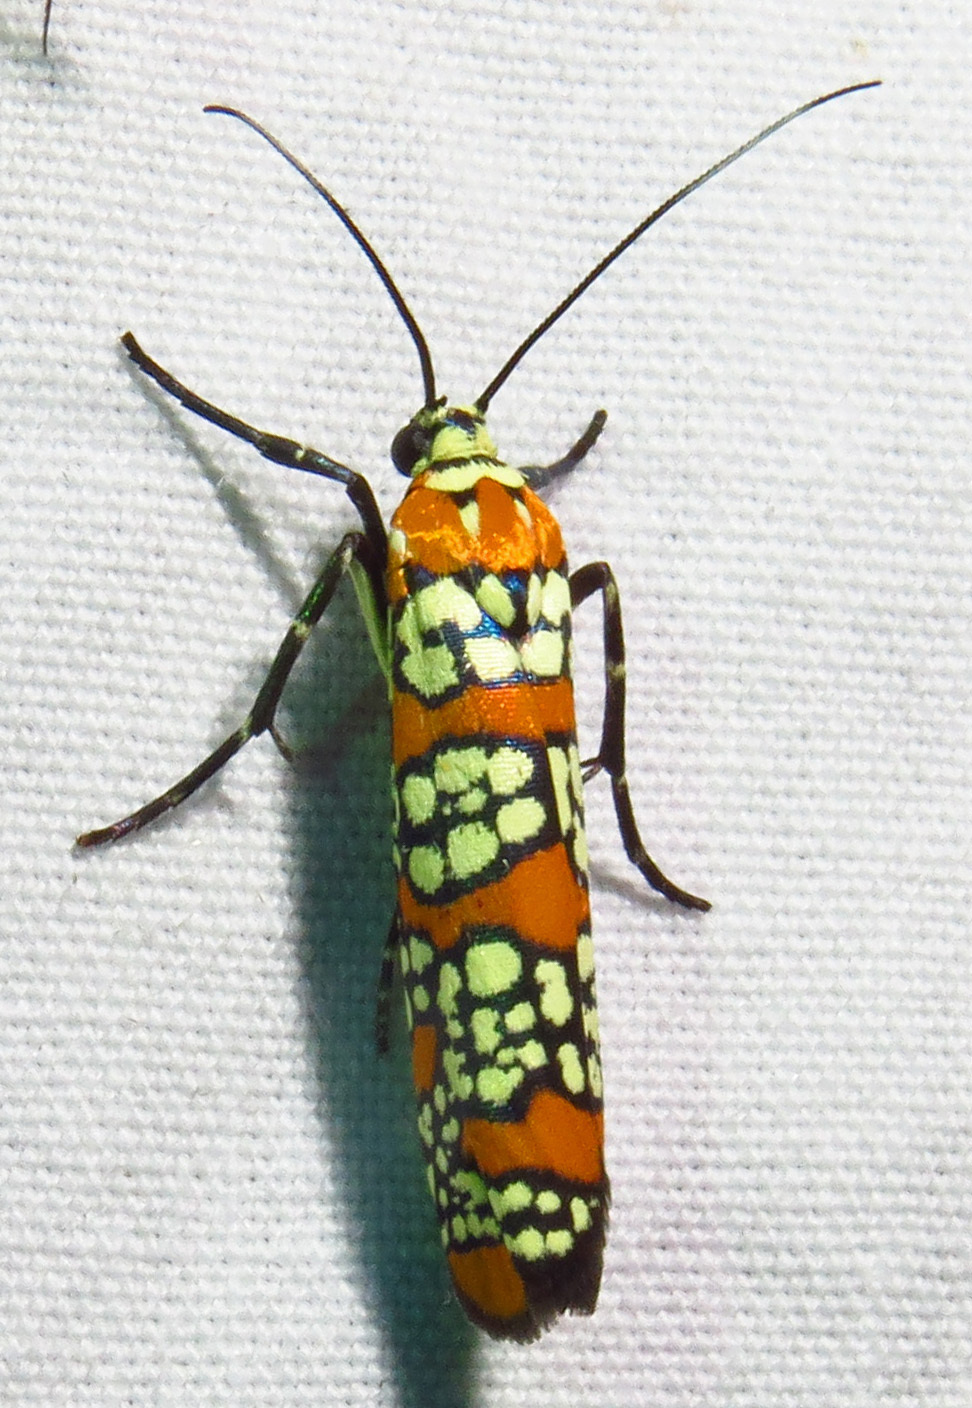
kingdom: Animalia
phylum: Arthropoda
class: Insecta
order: Lepidoptera
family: Attevidae
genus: Atteva
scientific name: Atteva punctella
